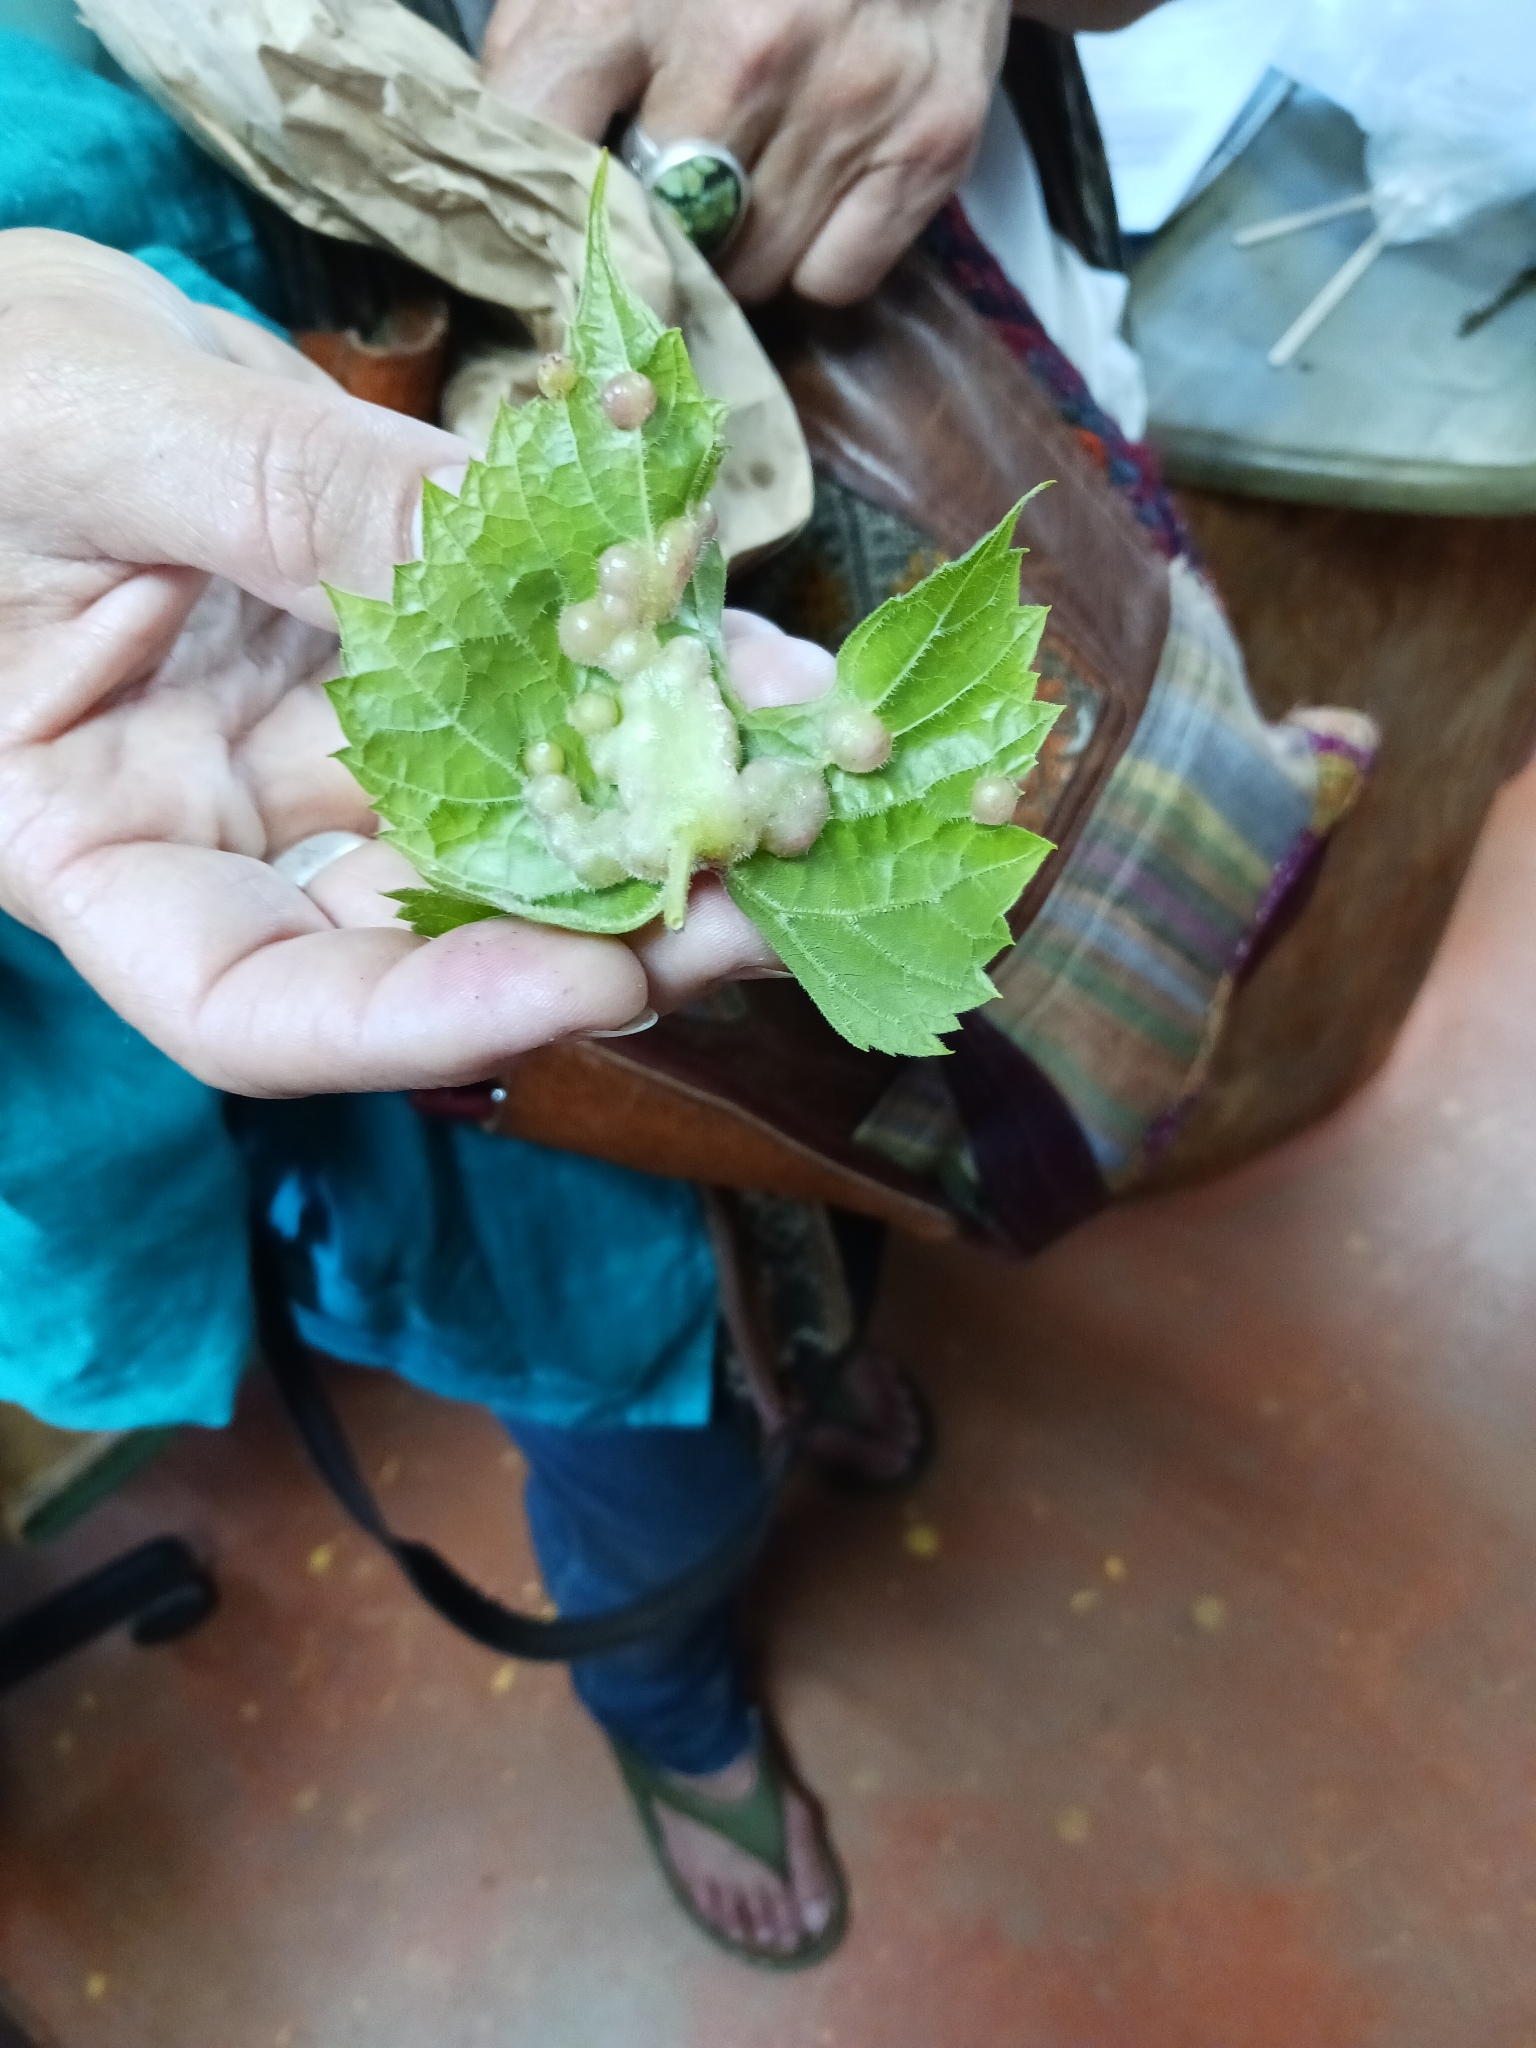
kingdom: Animalia
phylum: Arthropoda
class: Insecta
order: Hemiptera
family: Phylloxeridae
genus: Daktulosphaira
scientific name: Daktulosphaira vitifoliae
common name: Grape phylloxera
